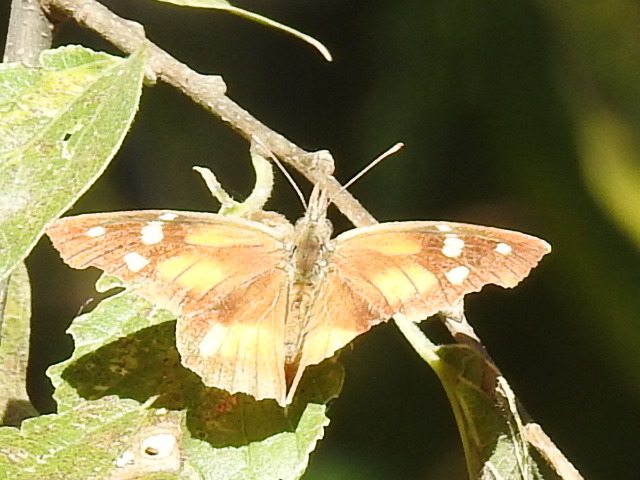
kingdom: Animalia
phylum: Arthropoda
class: Insecta
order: Lepidoptera
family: Nymphalidae
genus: Libytheana
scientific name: Libytheana carinenta
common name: American snout
